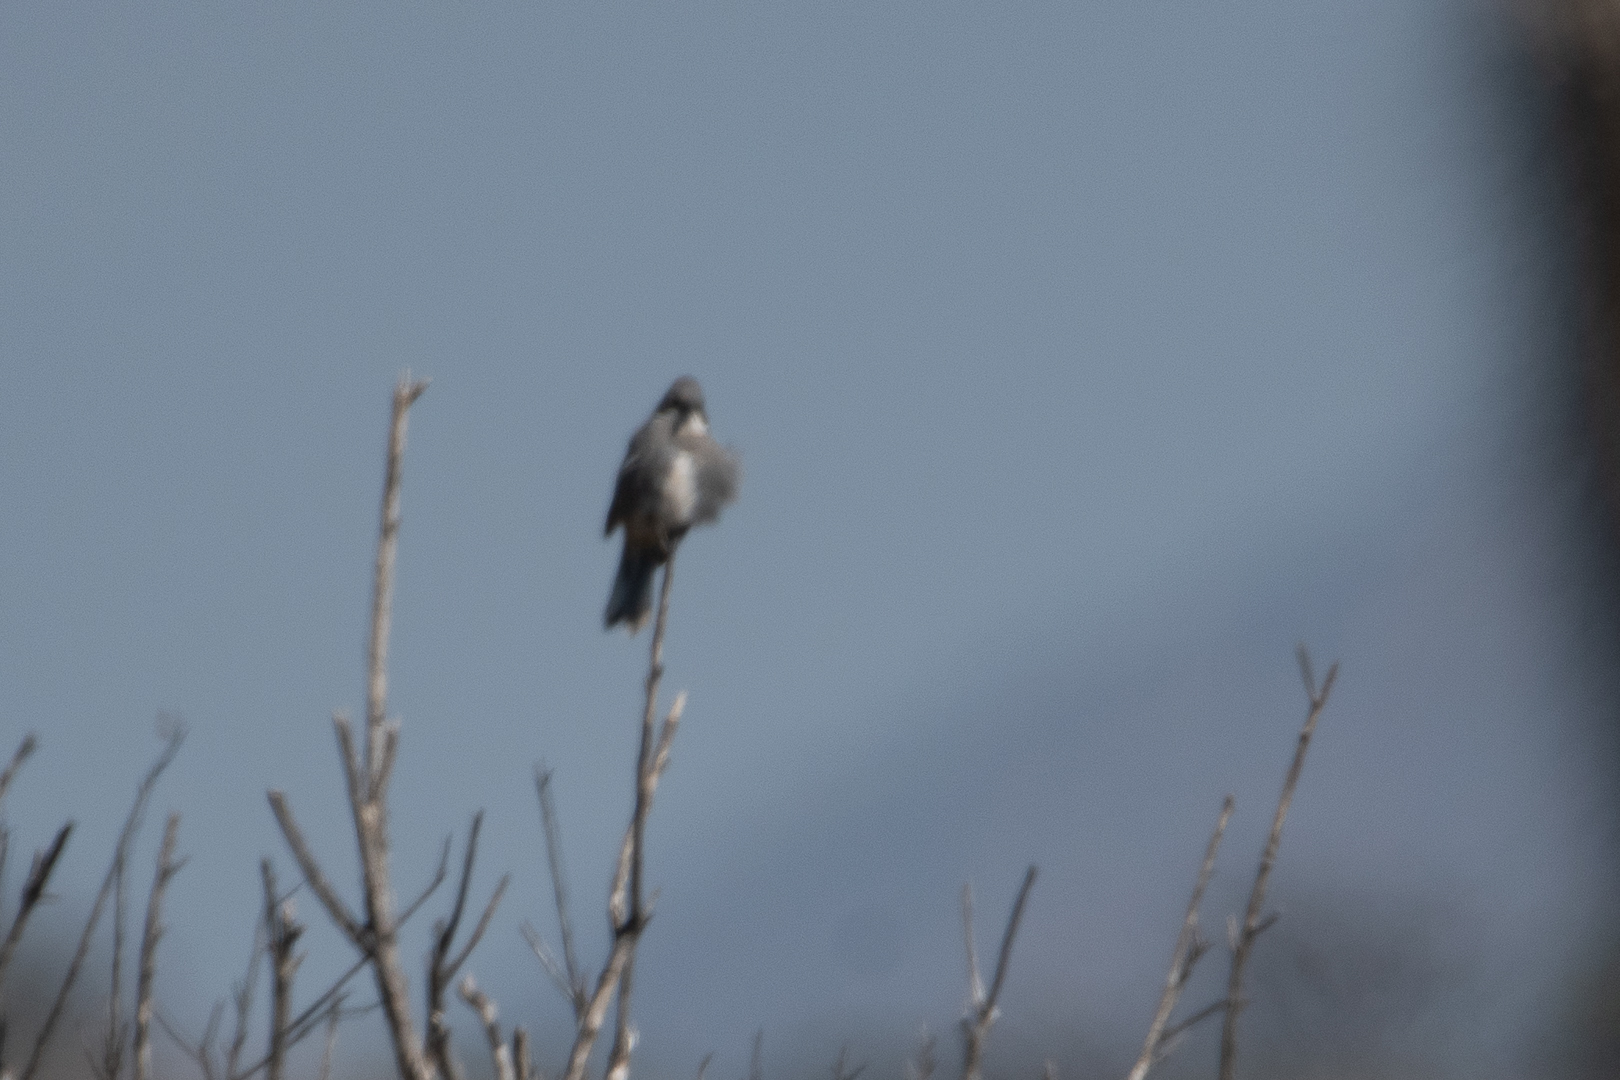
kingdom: Animalia
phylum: Chordata
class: Aves
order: Passeriformes
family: Thraupidae
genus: Diuca
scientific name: Diuca diuca
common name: Common diuca finch
